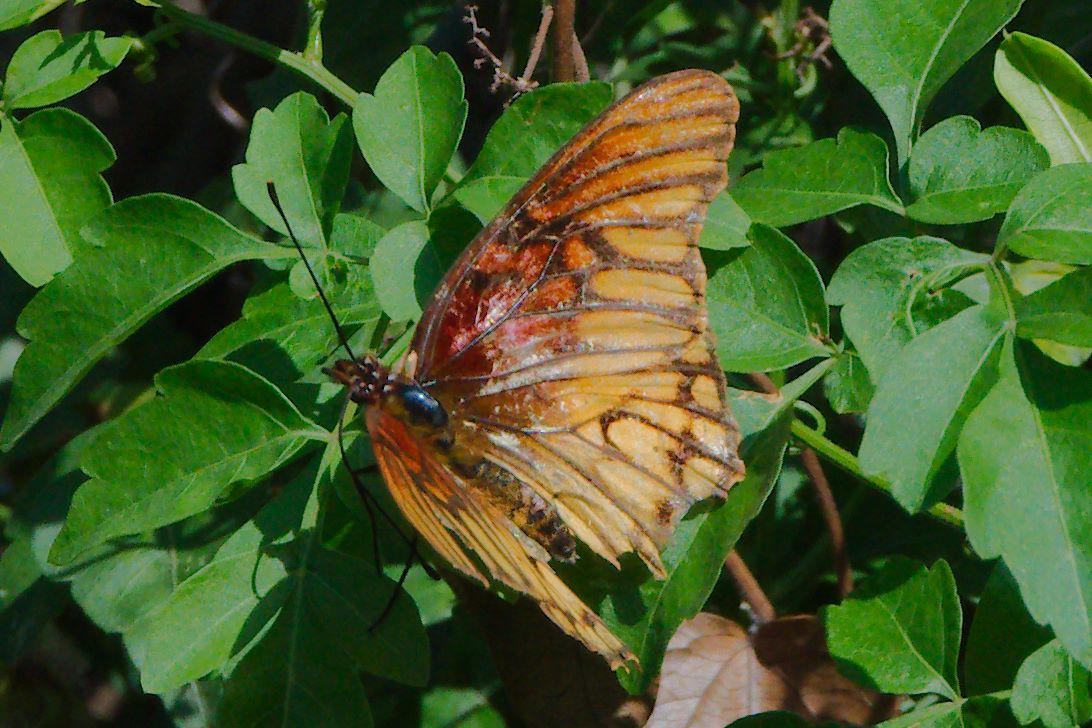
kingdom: Animalia
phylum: Arthropoda
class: Insecta
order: Lepidoptera
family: Nymphalidae
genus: Dione
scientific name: Dione moneta
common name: Mexican silverspot
